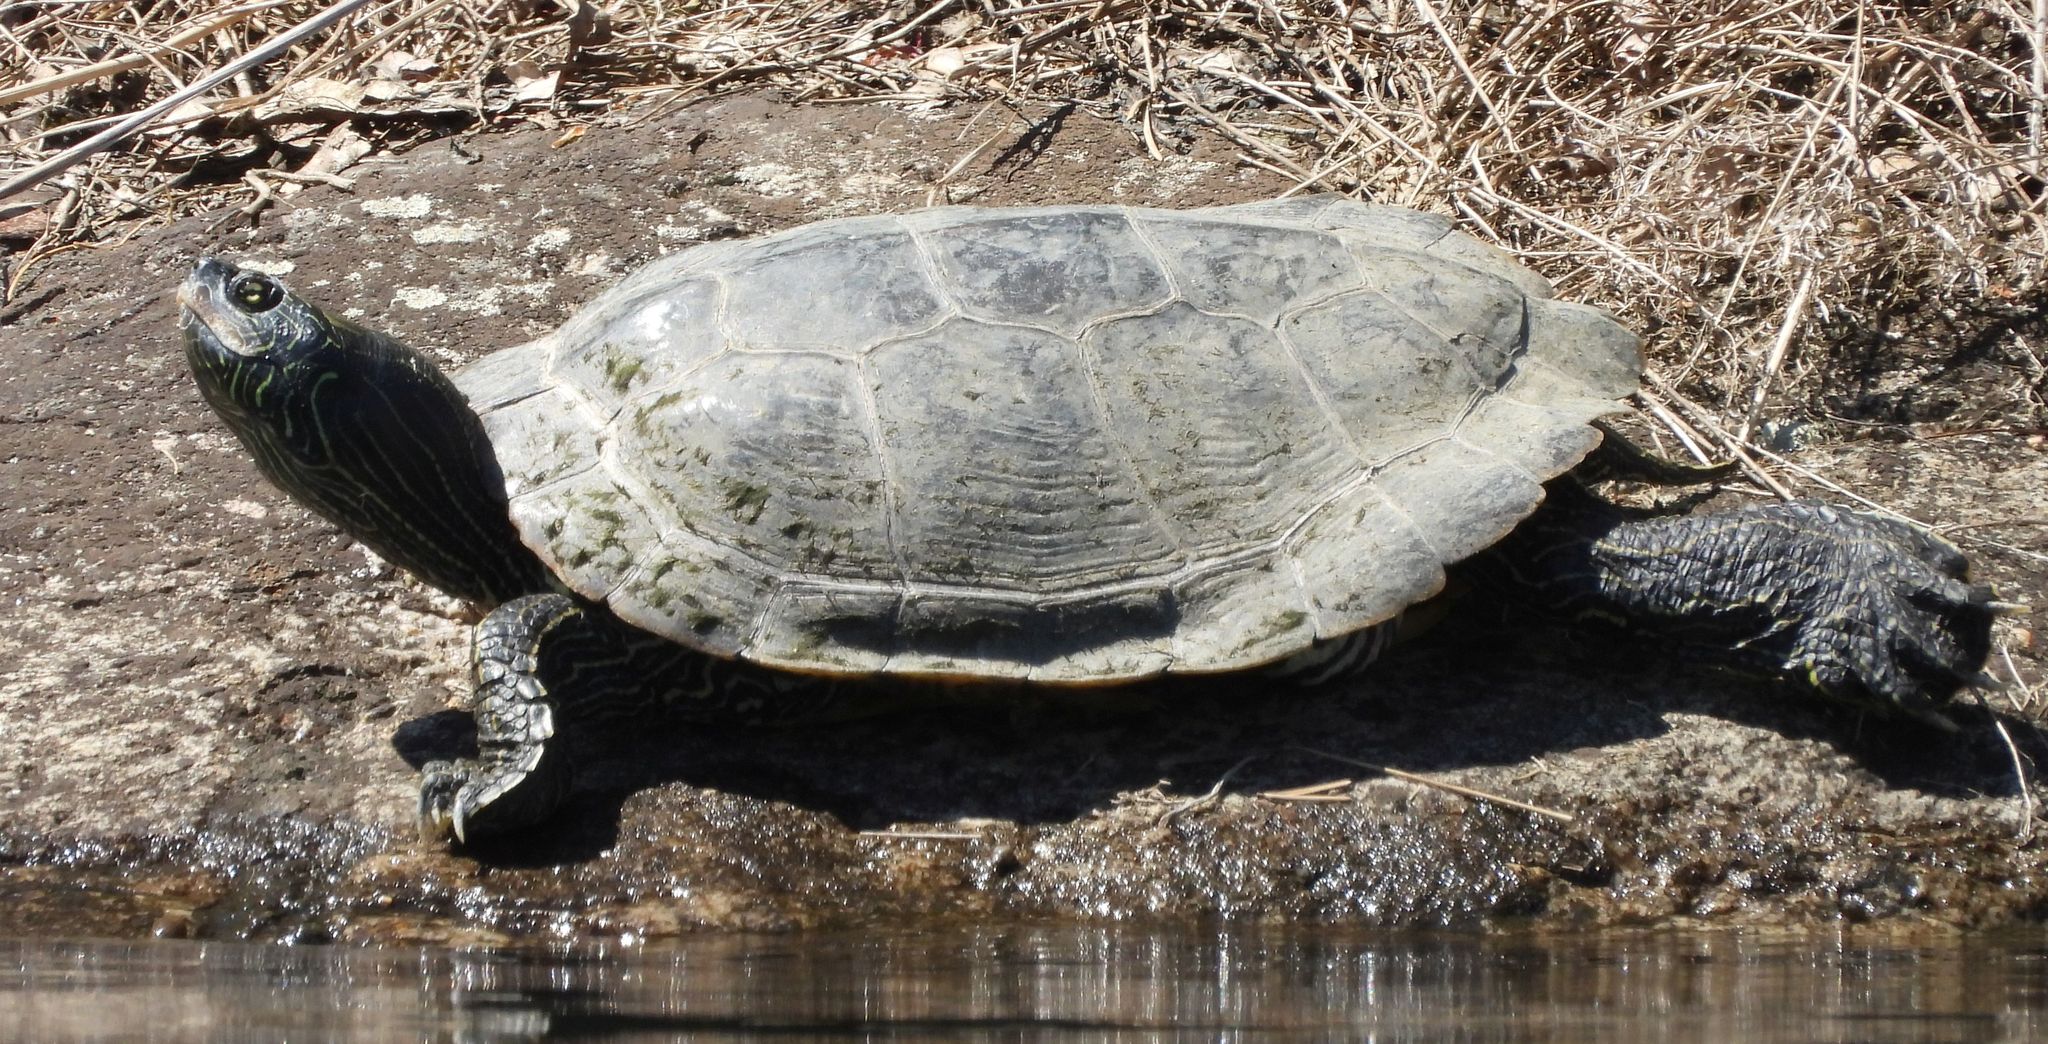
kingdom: Animalia
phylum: Chordata
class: Testudines
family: Emydidae
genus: Graptemys
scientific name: Graptemys geographica
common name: Common map turtle
